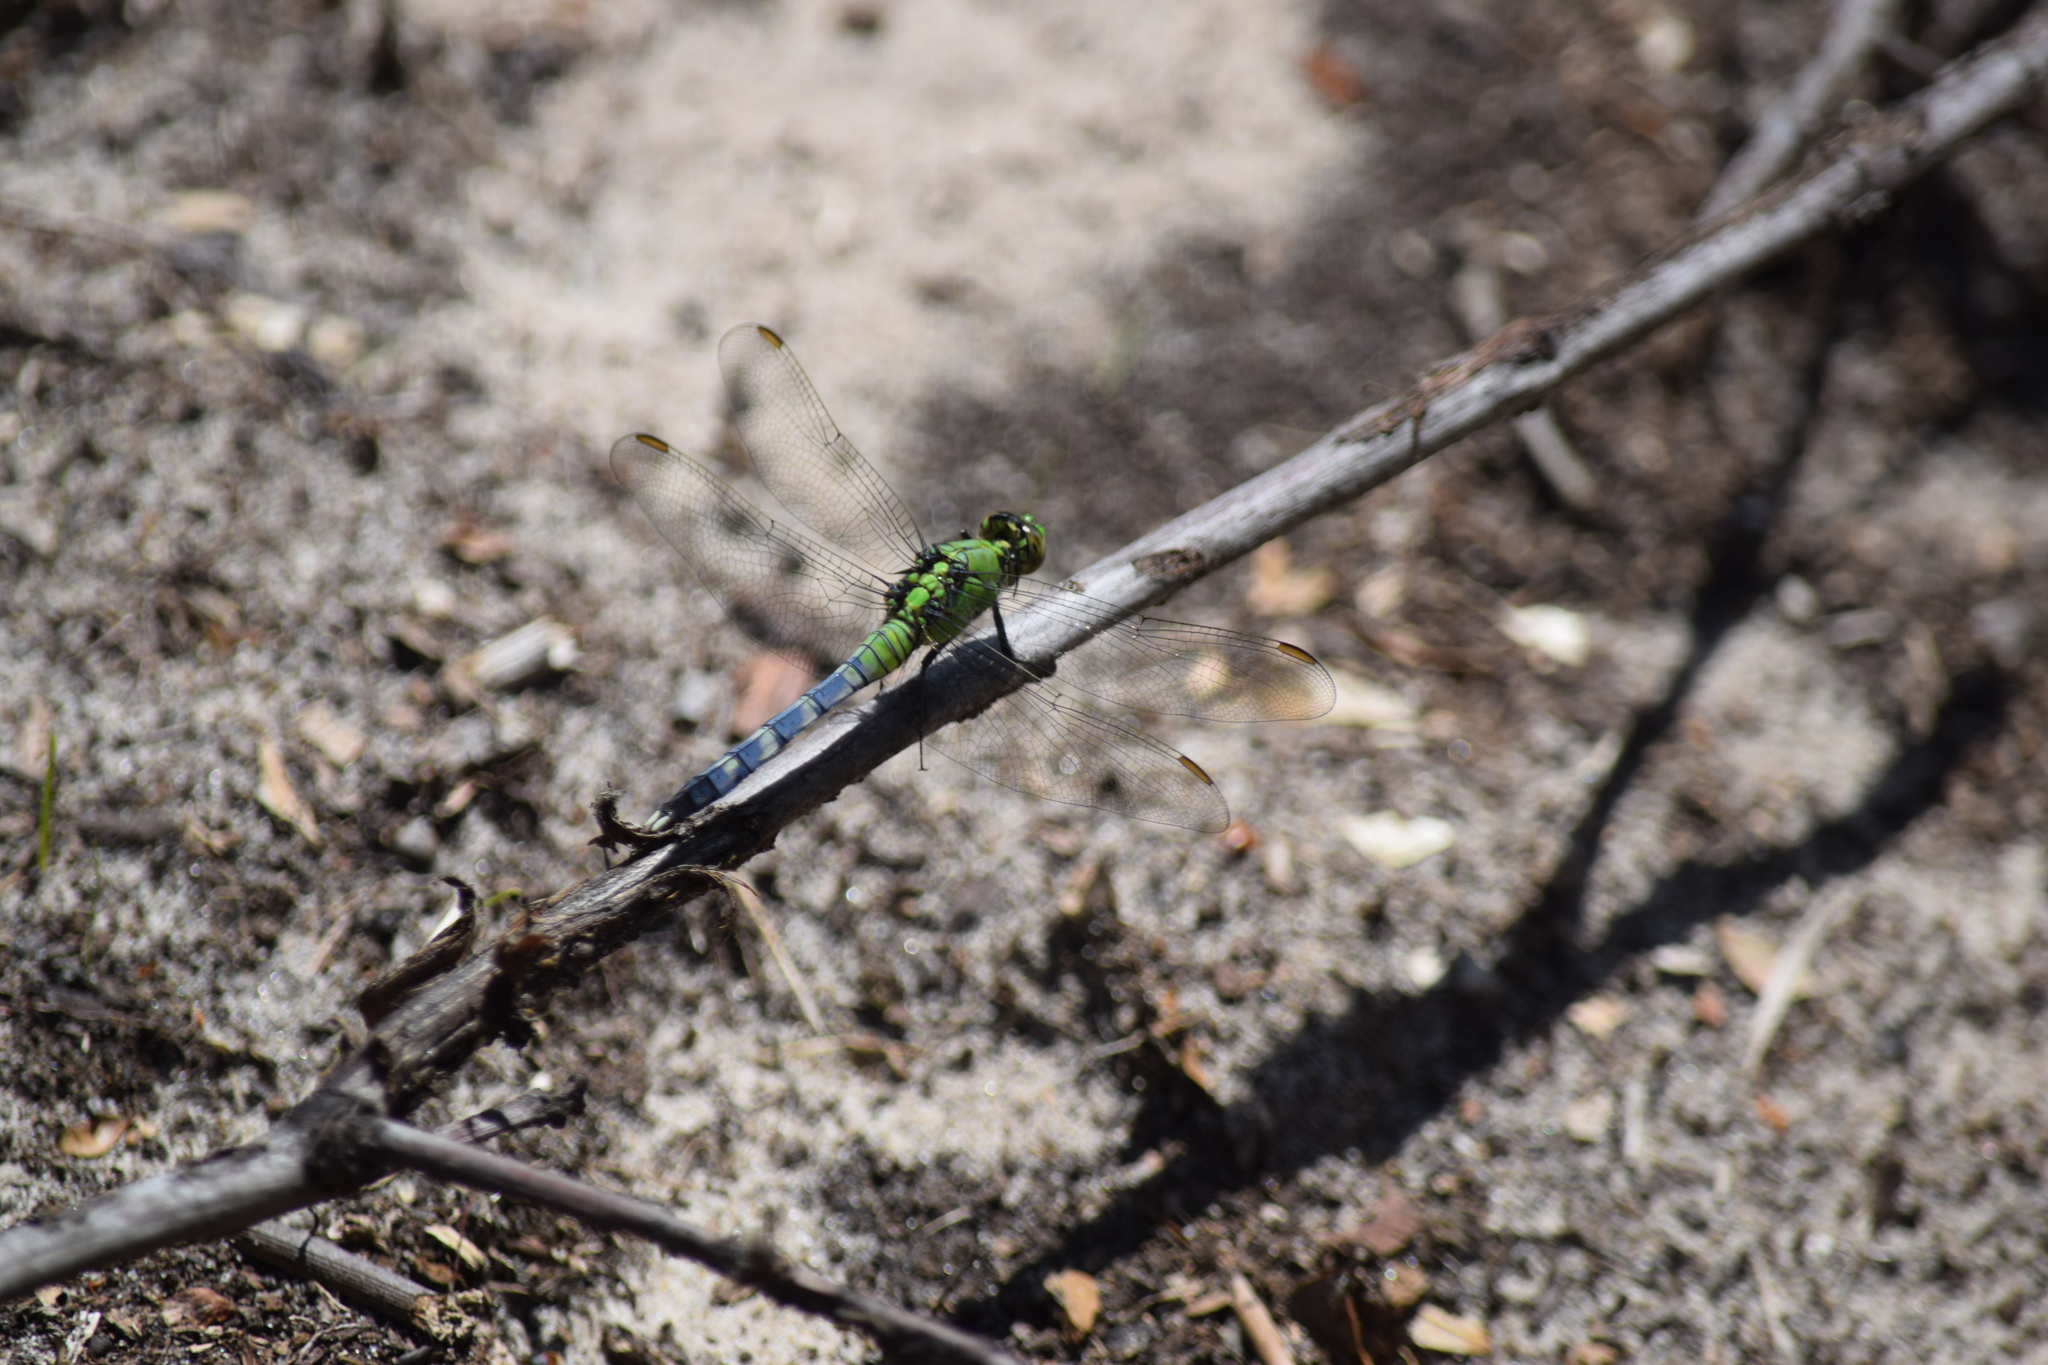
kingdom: Animalia
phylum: Arthropoda
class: Insecta
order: Odonata
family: Libellulidae
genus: Erythemis
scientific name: Erythemis simplicicollis
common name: Eastern pondhawk
